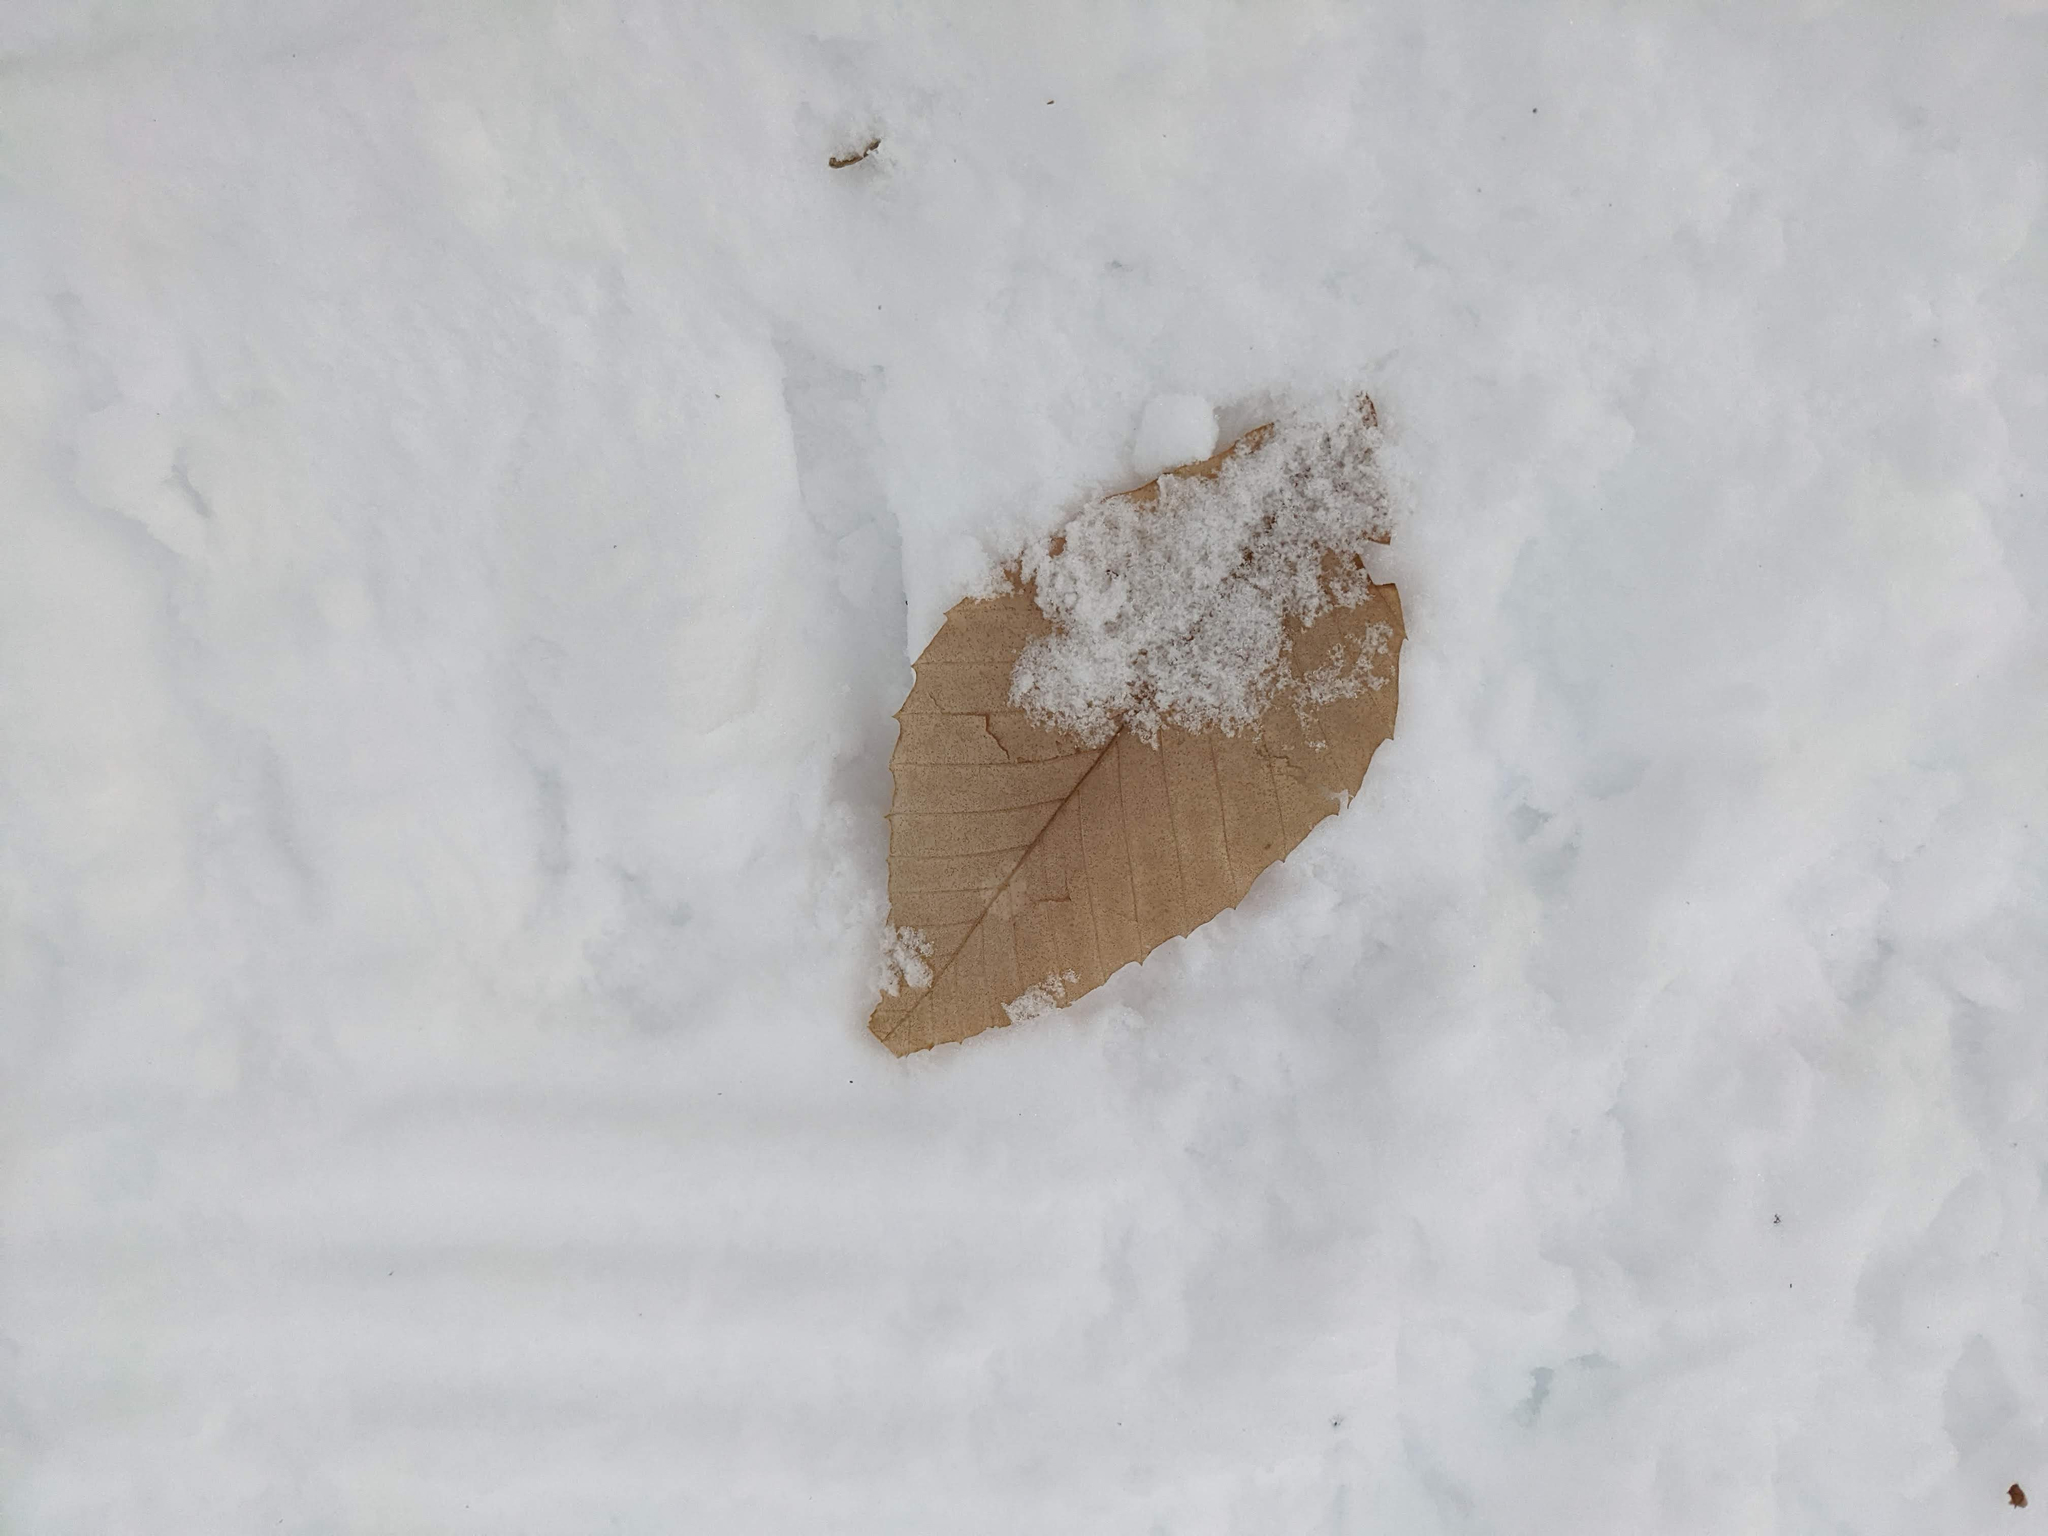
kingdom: Plantae
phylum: Tracheophyta
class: Magnoliopsida
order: Fagales
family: Fagaceae
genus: Fagus
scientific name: Fagus grandifolia
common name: American beech
